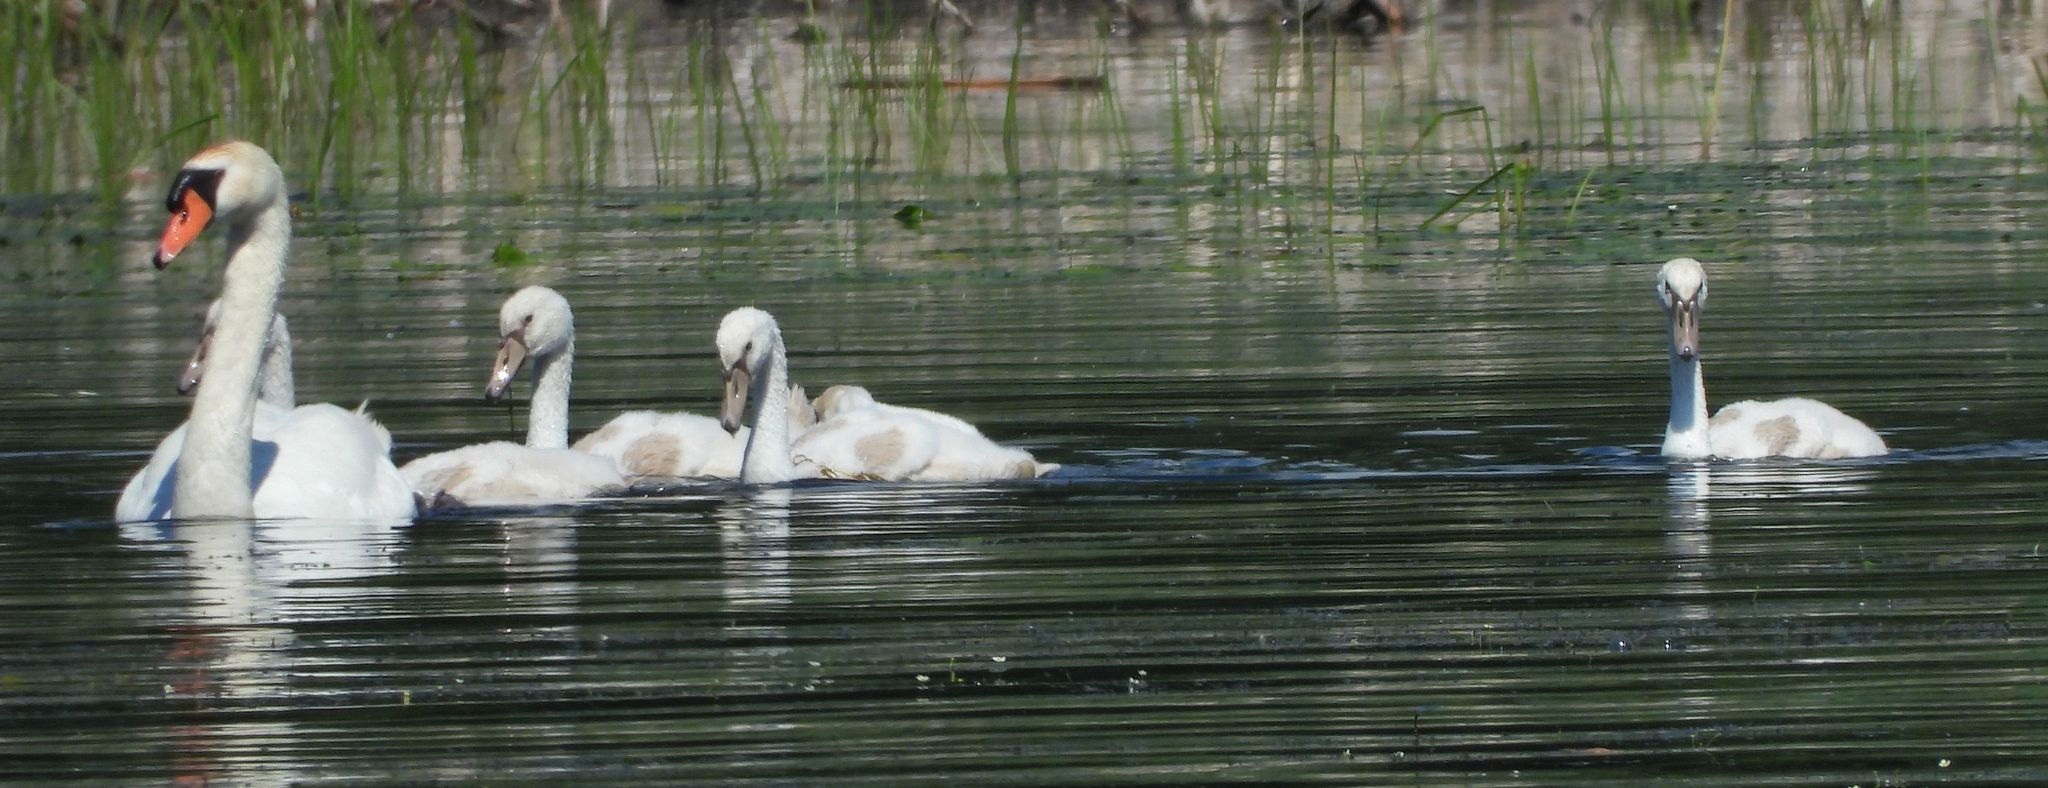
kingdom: Animalia
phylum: Chordata
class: Aves
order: Anseriformes
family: Anatidae
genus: Cygnus
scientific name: Cygnus olor
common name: Mute swan
